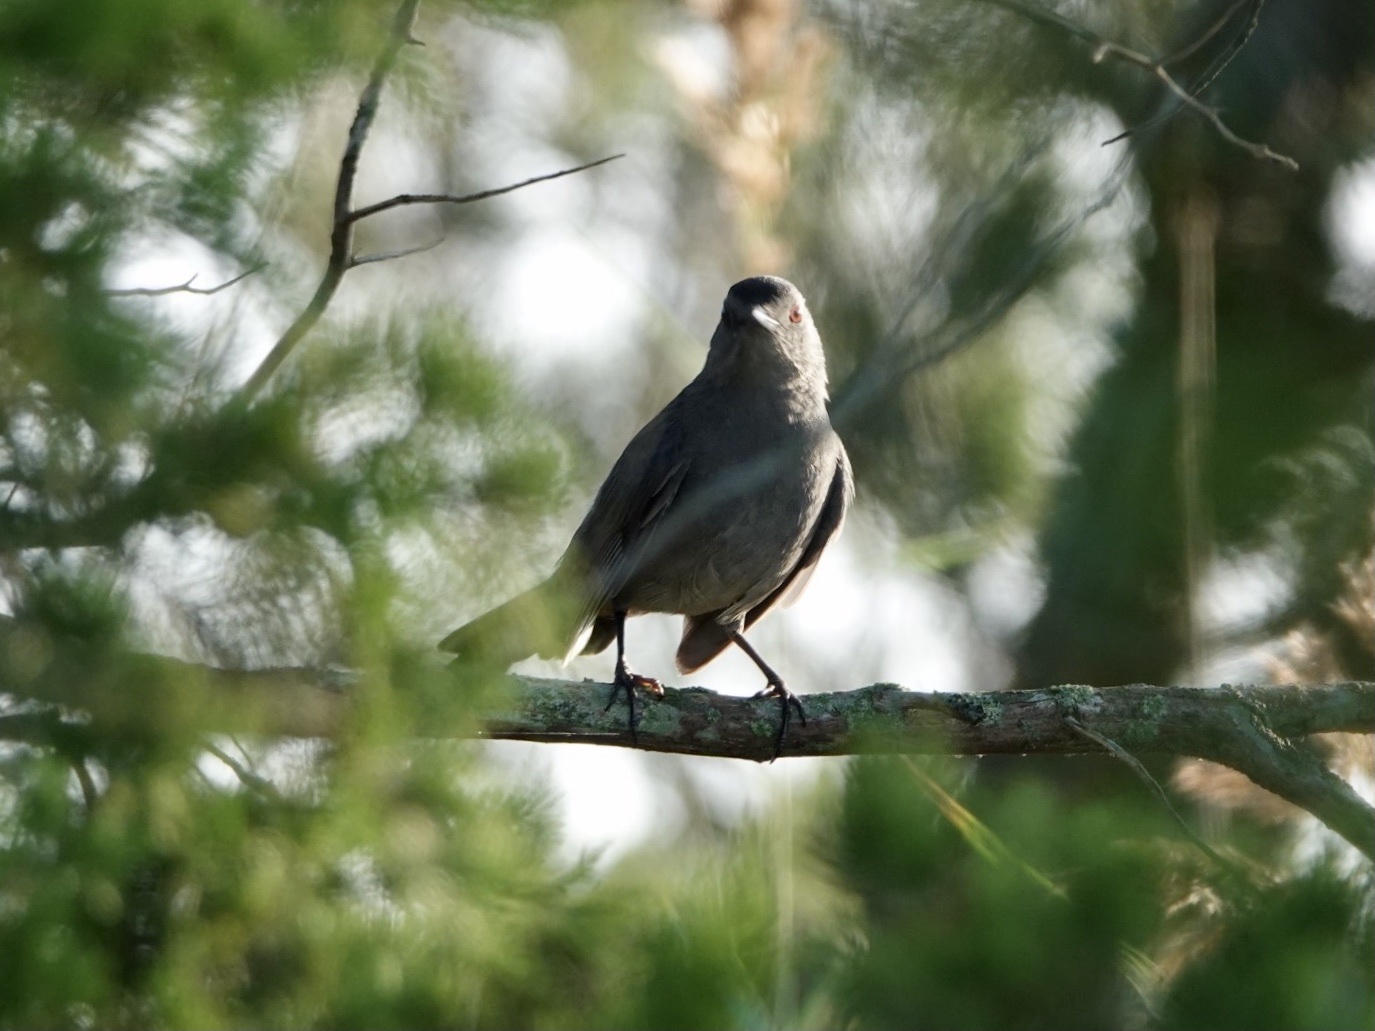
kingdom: Animalia
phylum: Chordata
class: Aves
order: Passeriformes
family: Mimidae
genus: Dumetella
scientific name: Dumetella carolinensis
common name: Gray catbird
